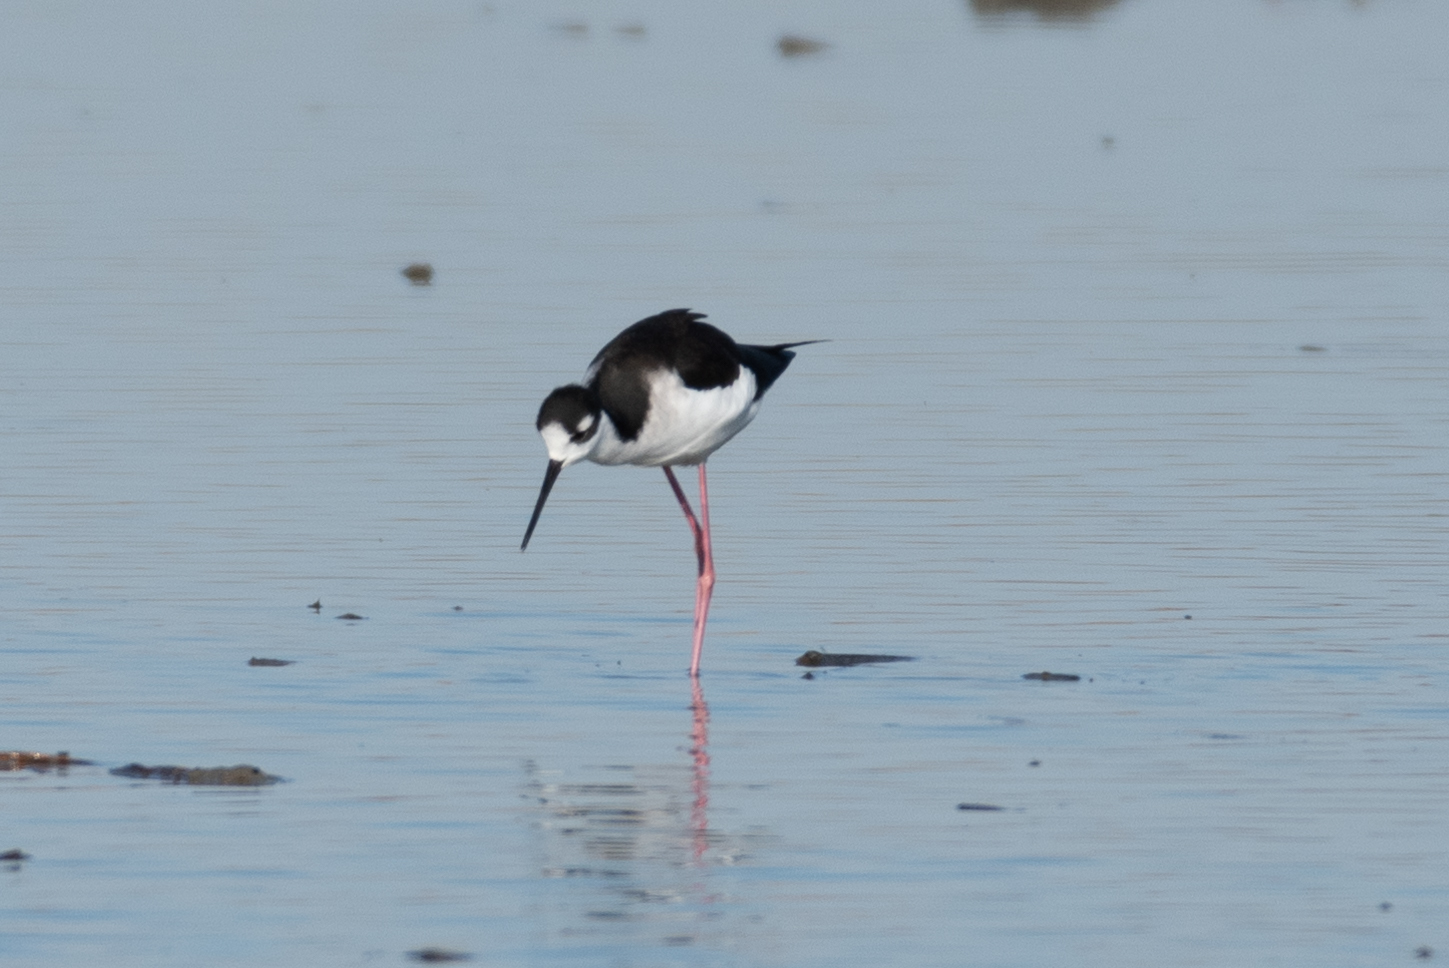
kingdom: Animalia
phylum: Chordata
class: Aves
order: Charadriiformes
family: Recurvirostridae
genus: Himantopus
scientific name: Himantopus mexicanus
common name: Black-necked stilt
